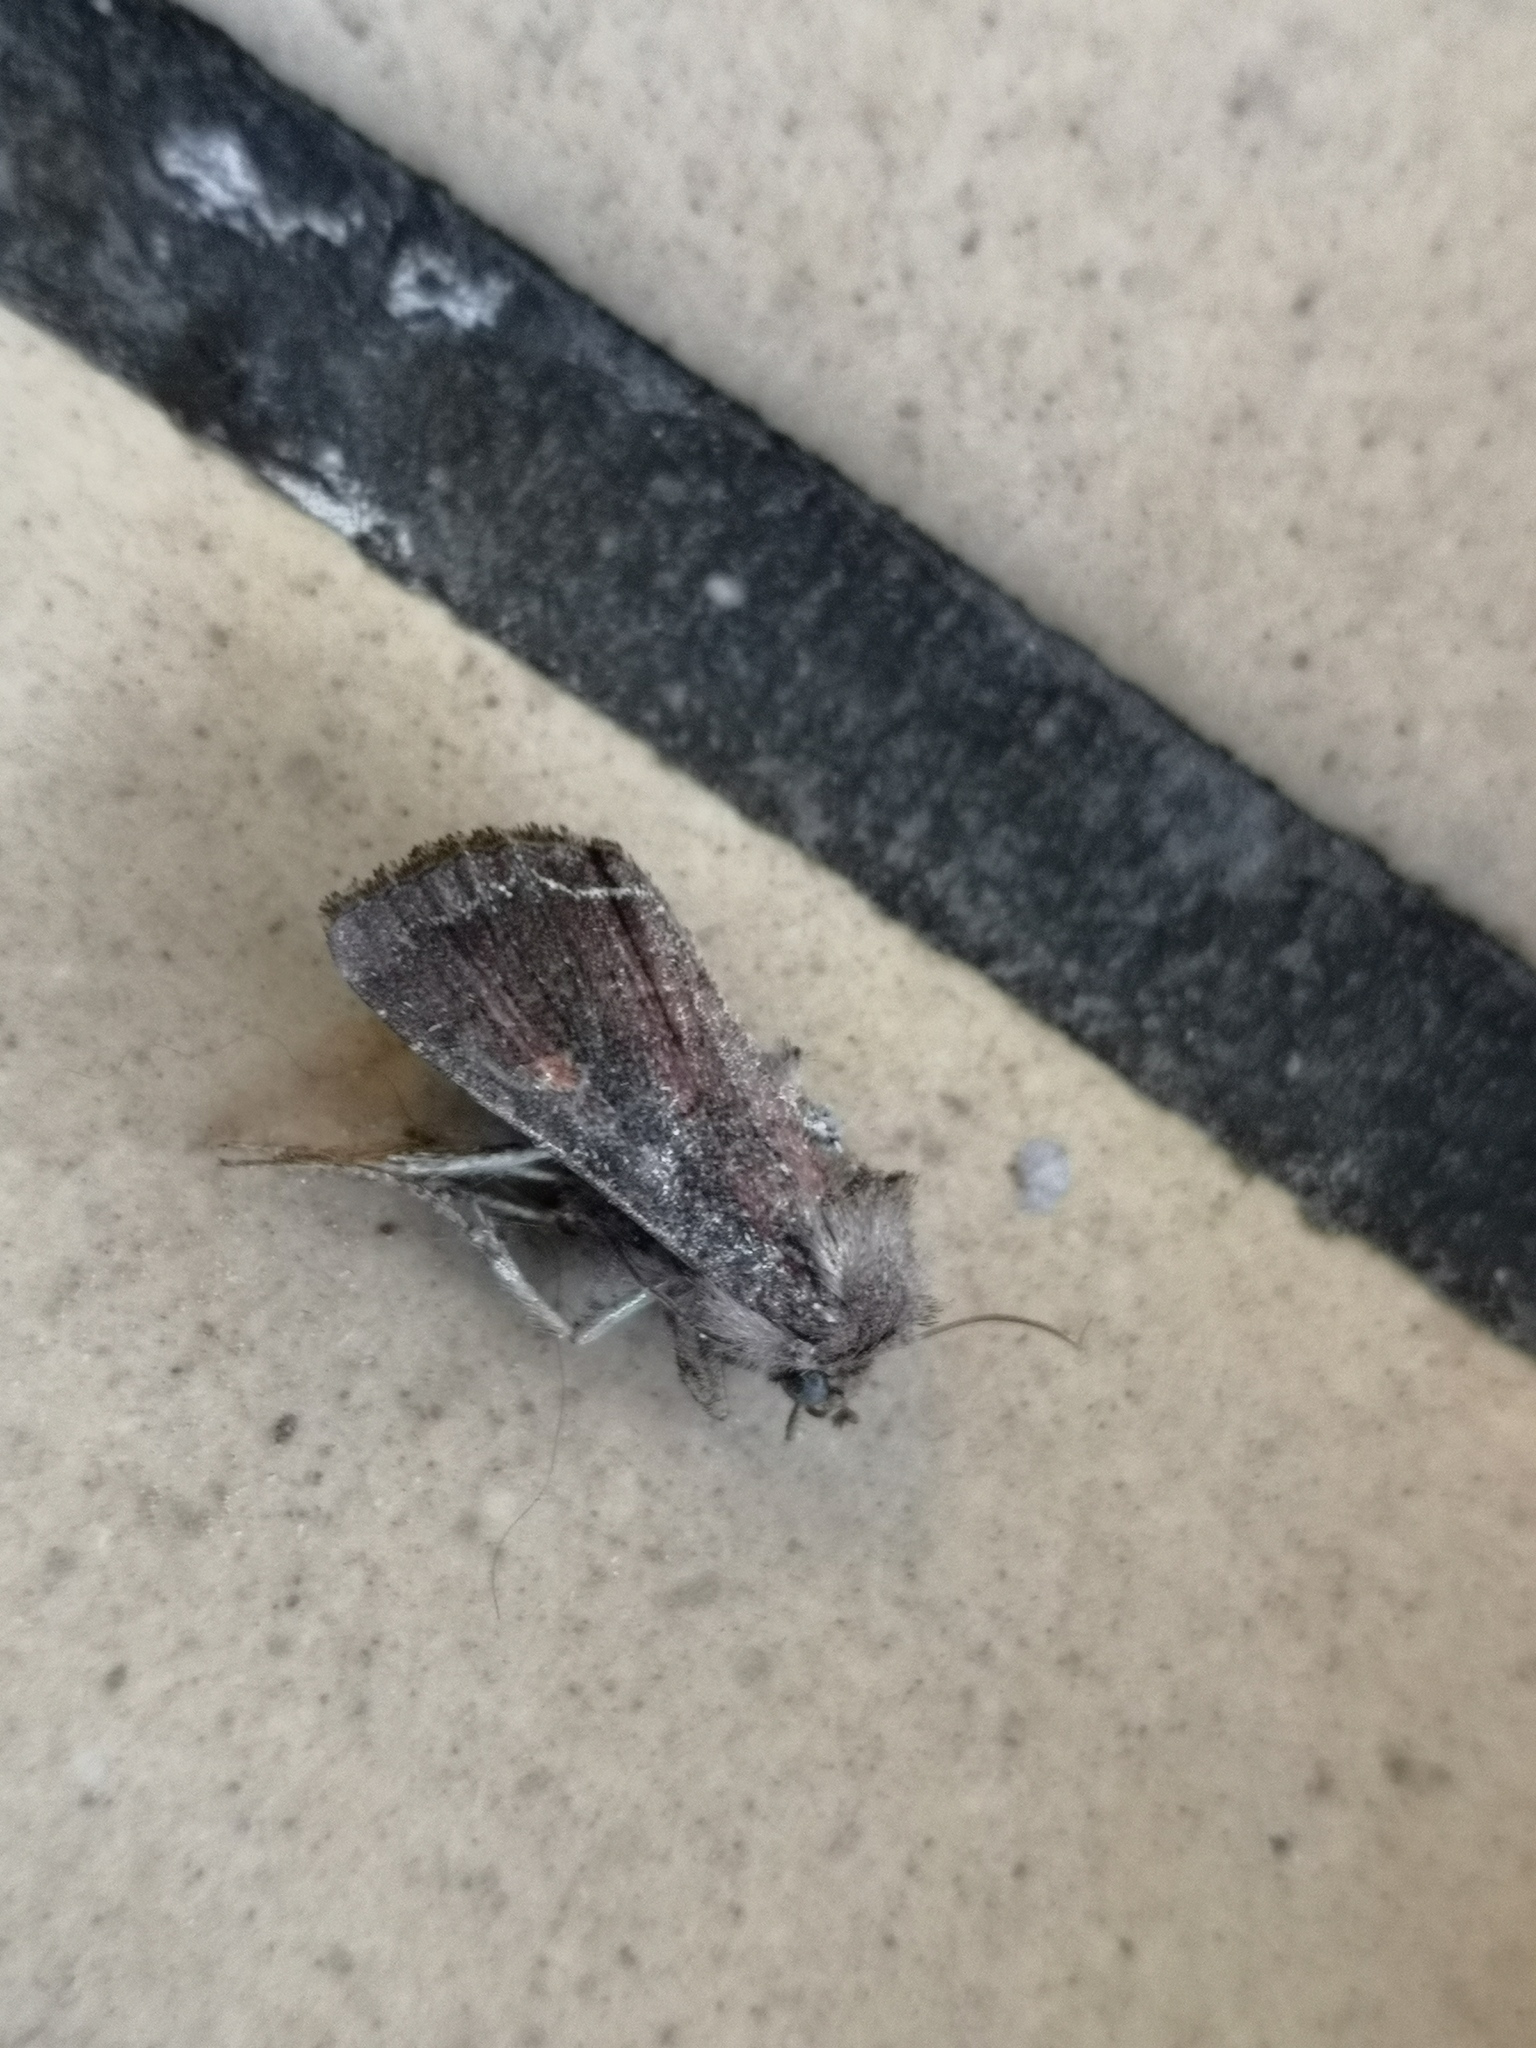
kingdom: Animalia
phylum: Arthropoda
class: Insecta
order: Lepidoptera
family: Noctuidae
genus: Lacanobia
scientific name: Lacanobia oleracea
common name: Bright-line brown-eye
